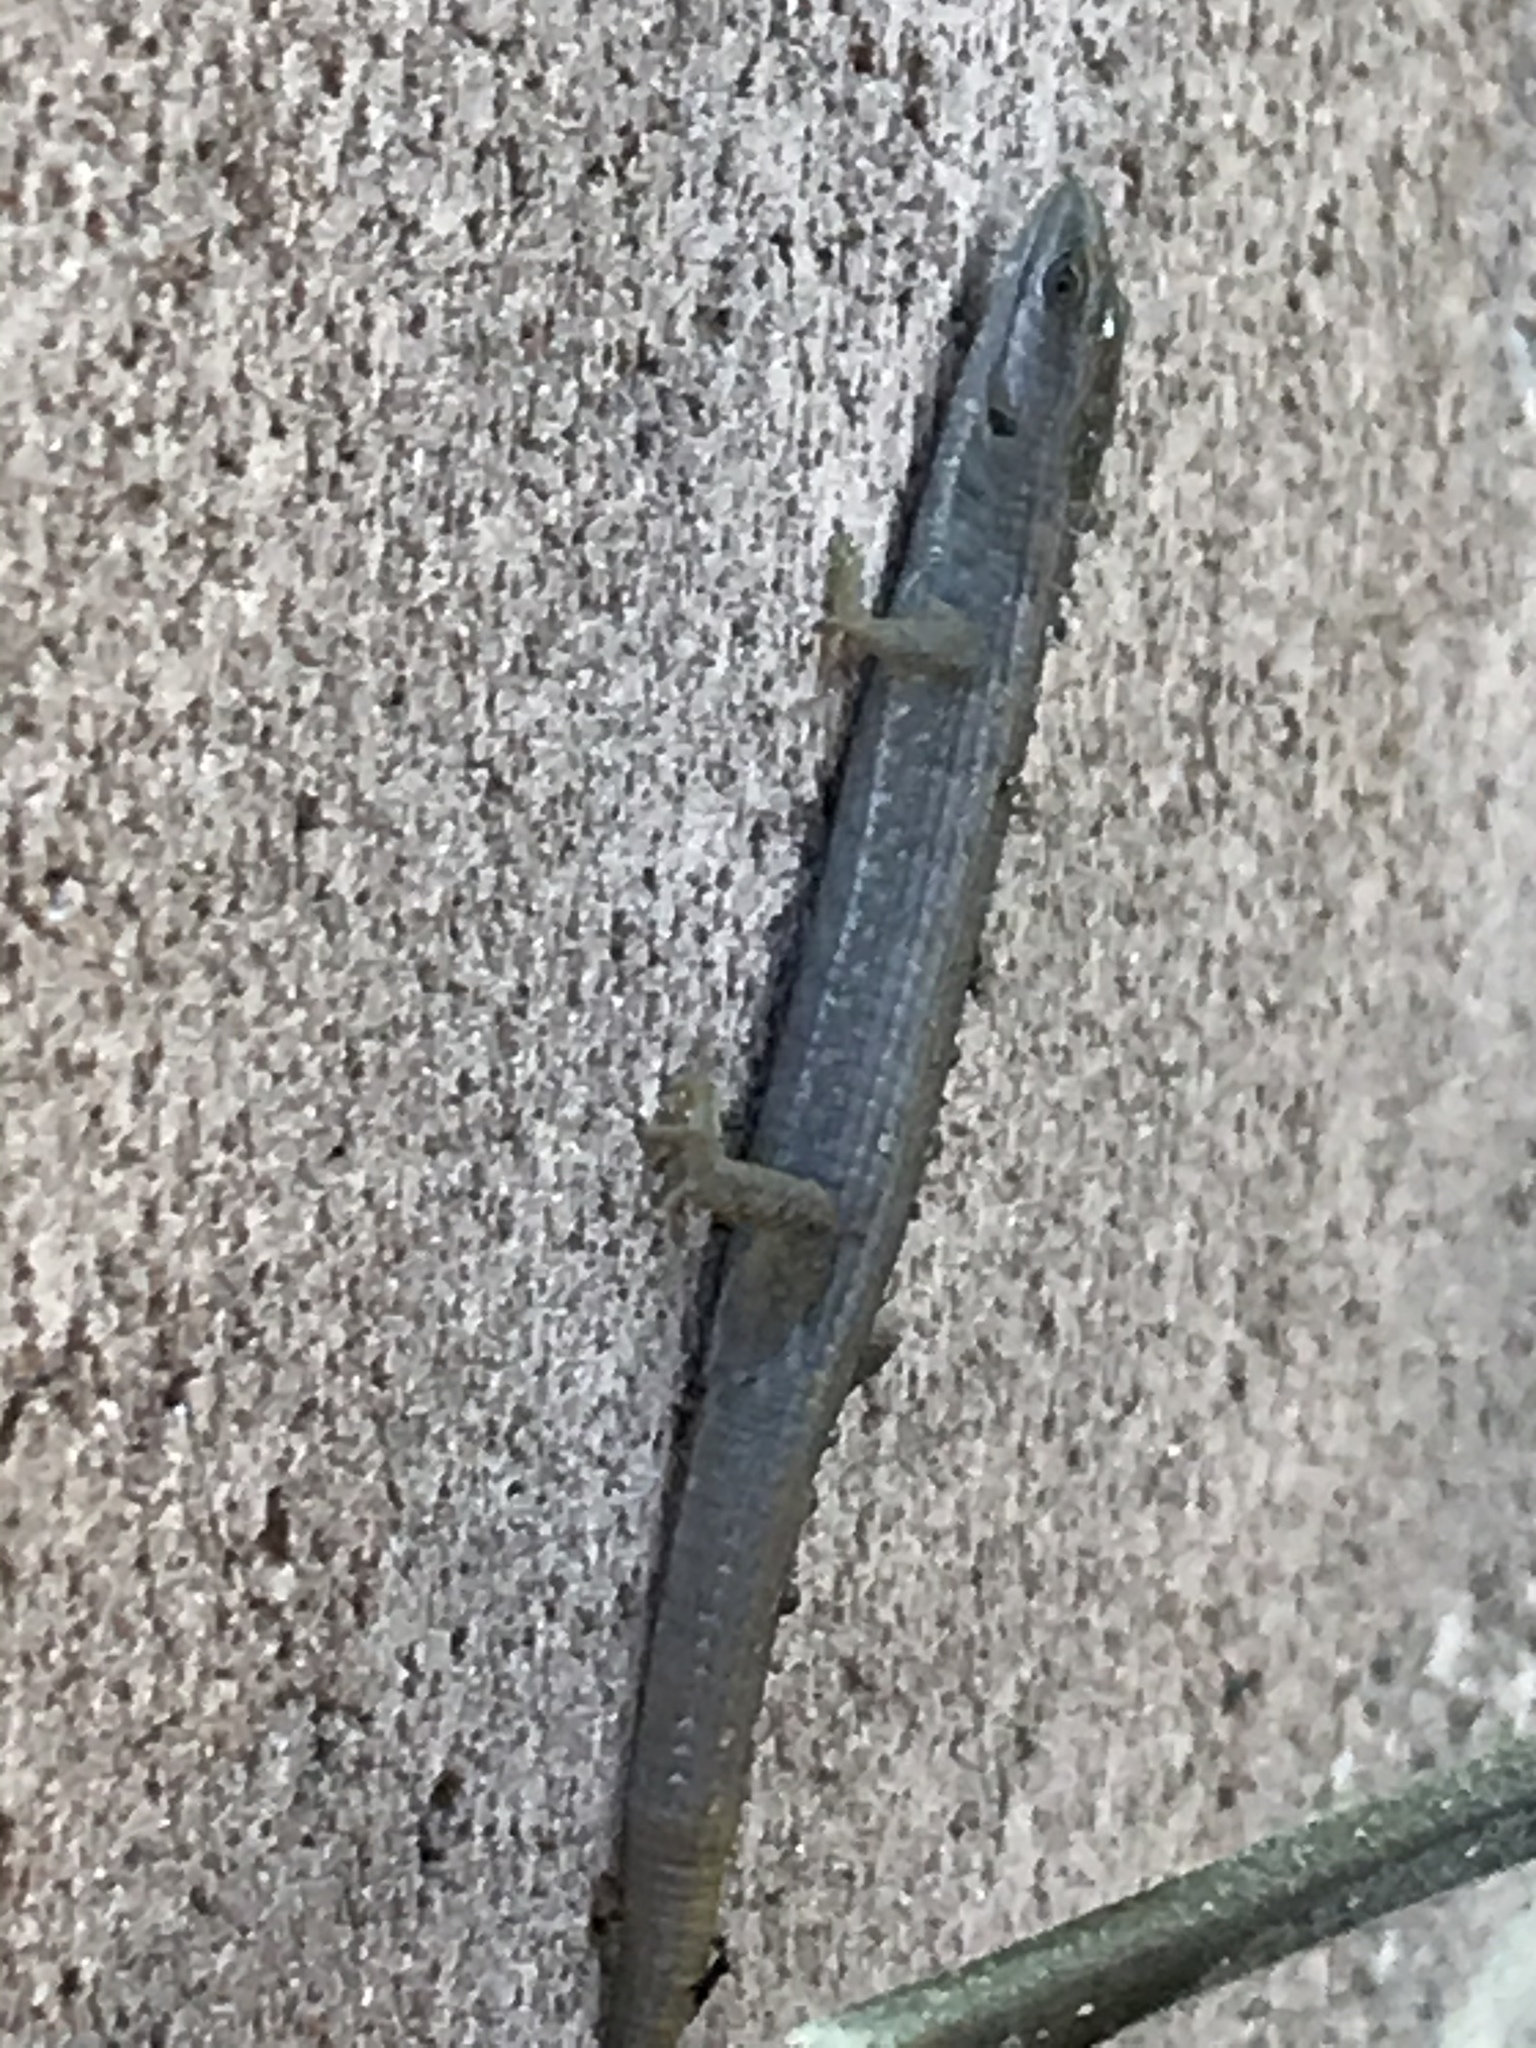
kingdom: Animalia
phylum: Chordata
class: Squamata
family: Anguidae
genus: Elgaria
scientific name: Elgaria multicarinata
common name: Southern alligator lizard
